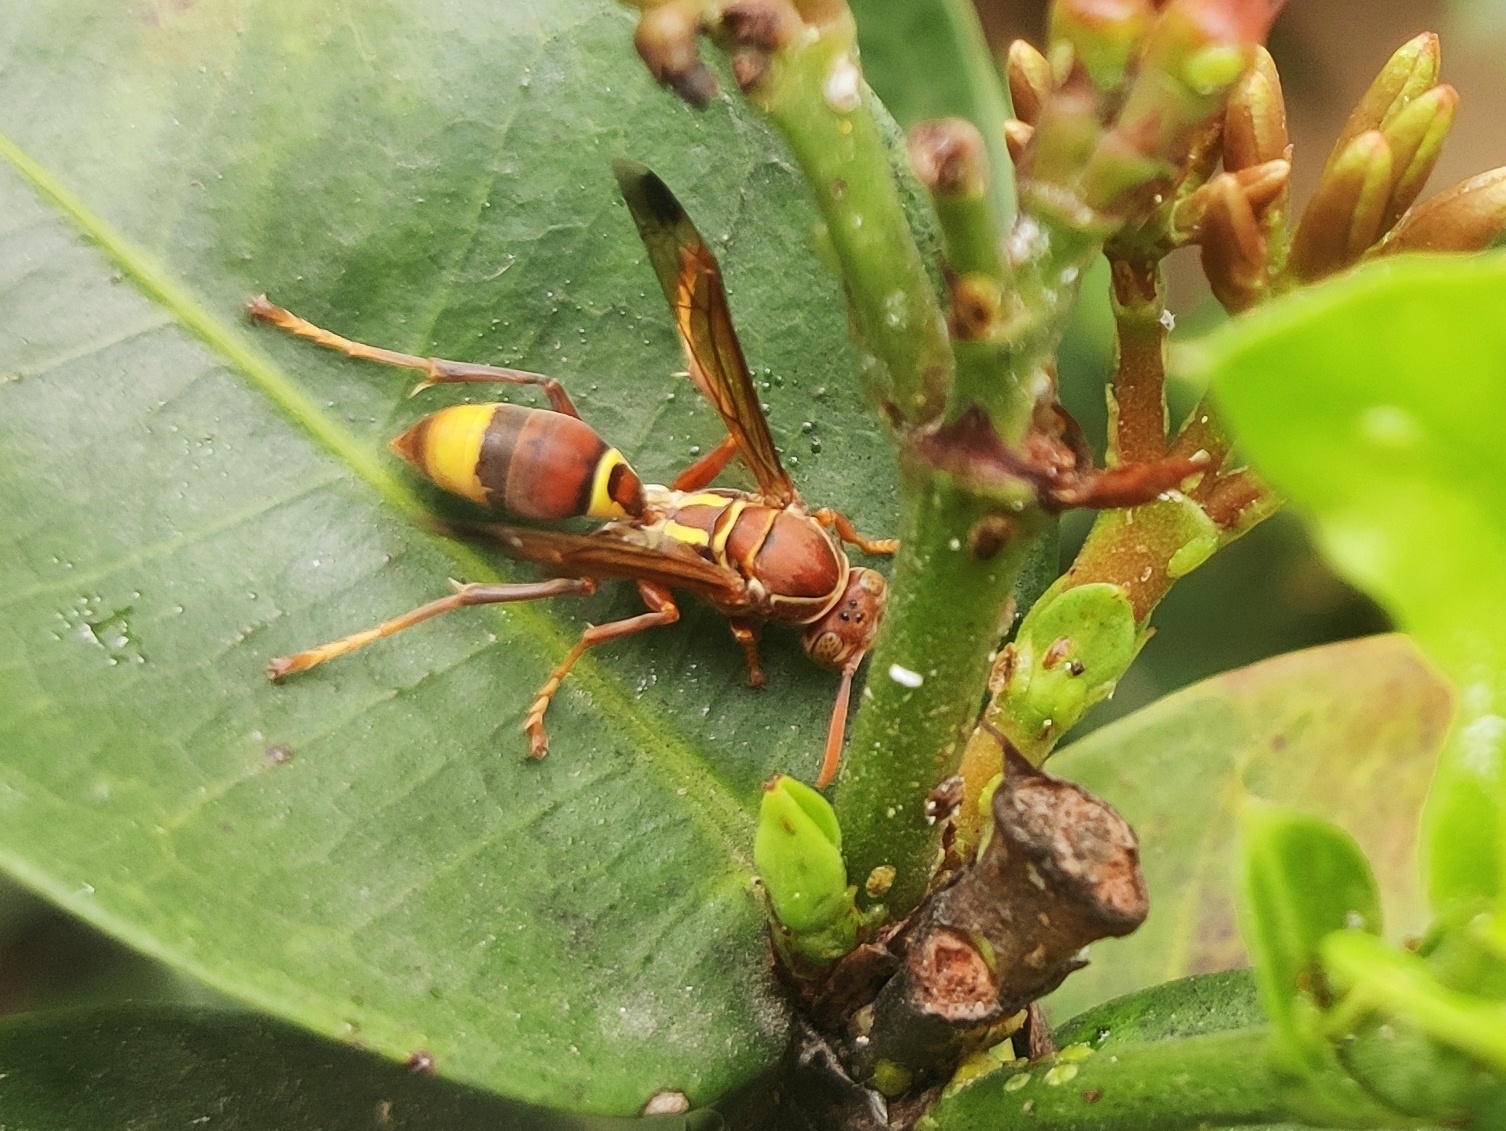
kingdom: Animalia
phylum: Arthropoda
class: Insecta
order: Hymenoptera
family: Eumenidae
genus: Polistes
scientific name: Polistes stigma
